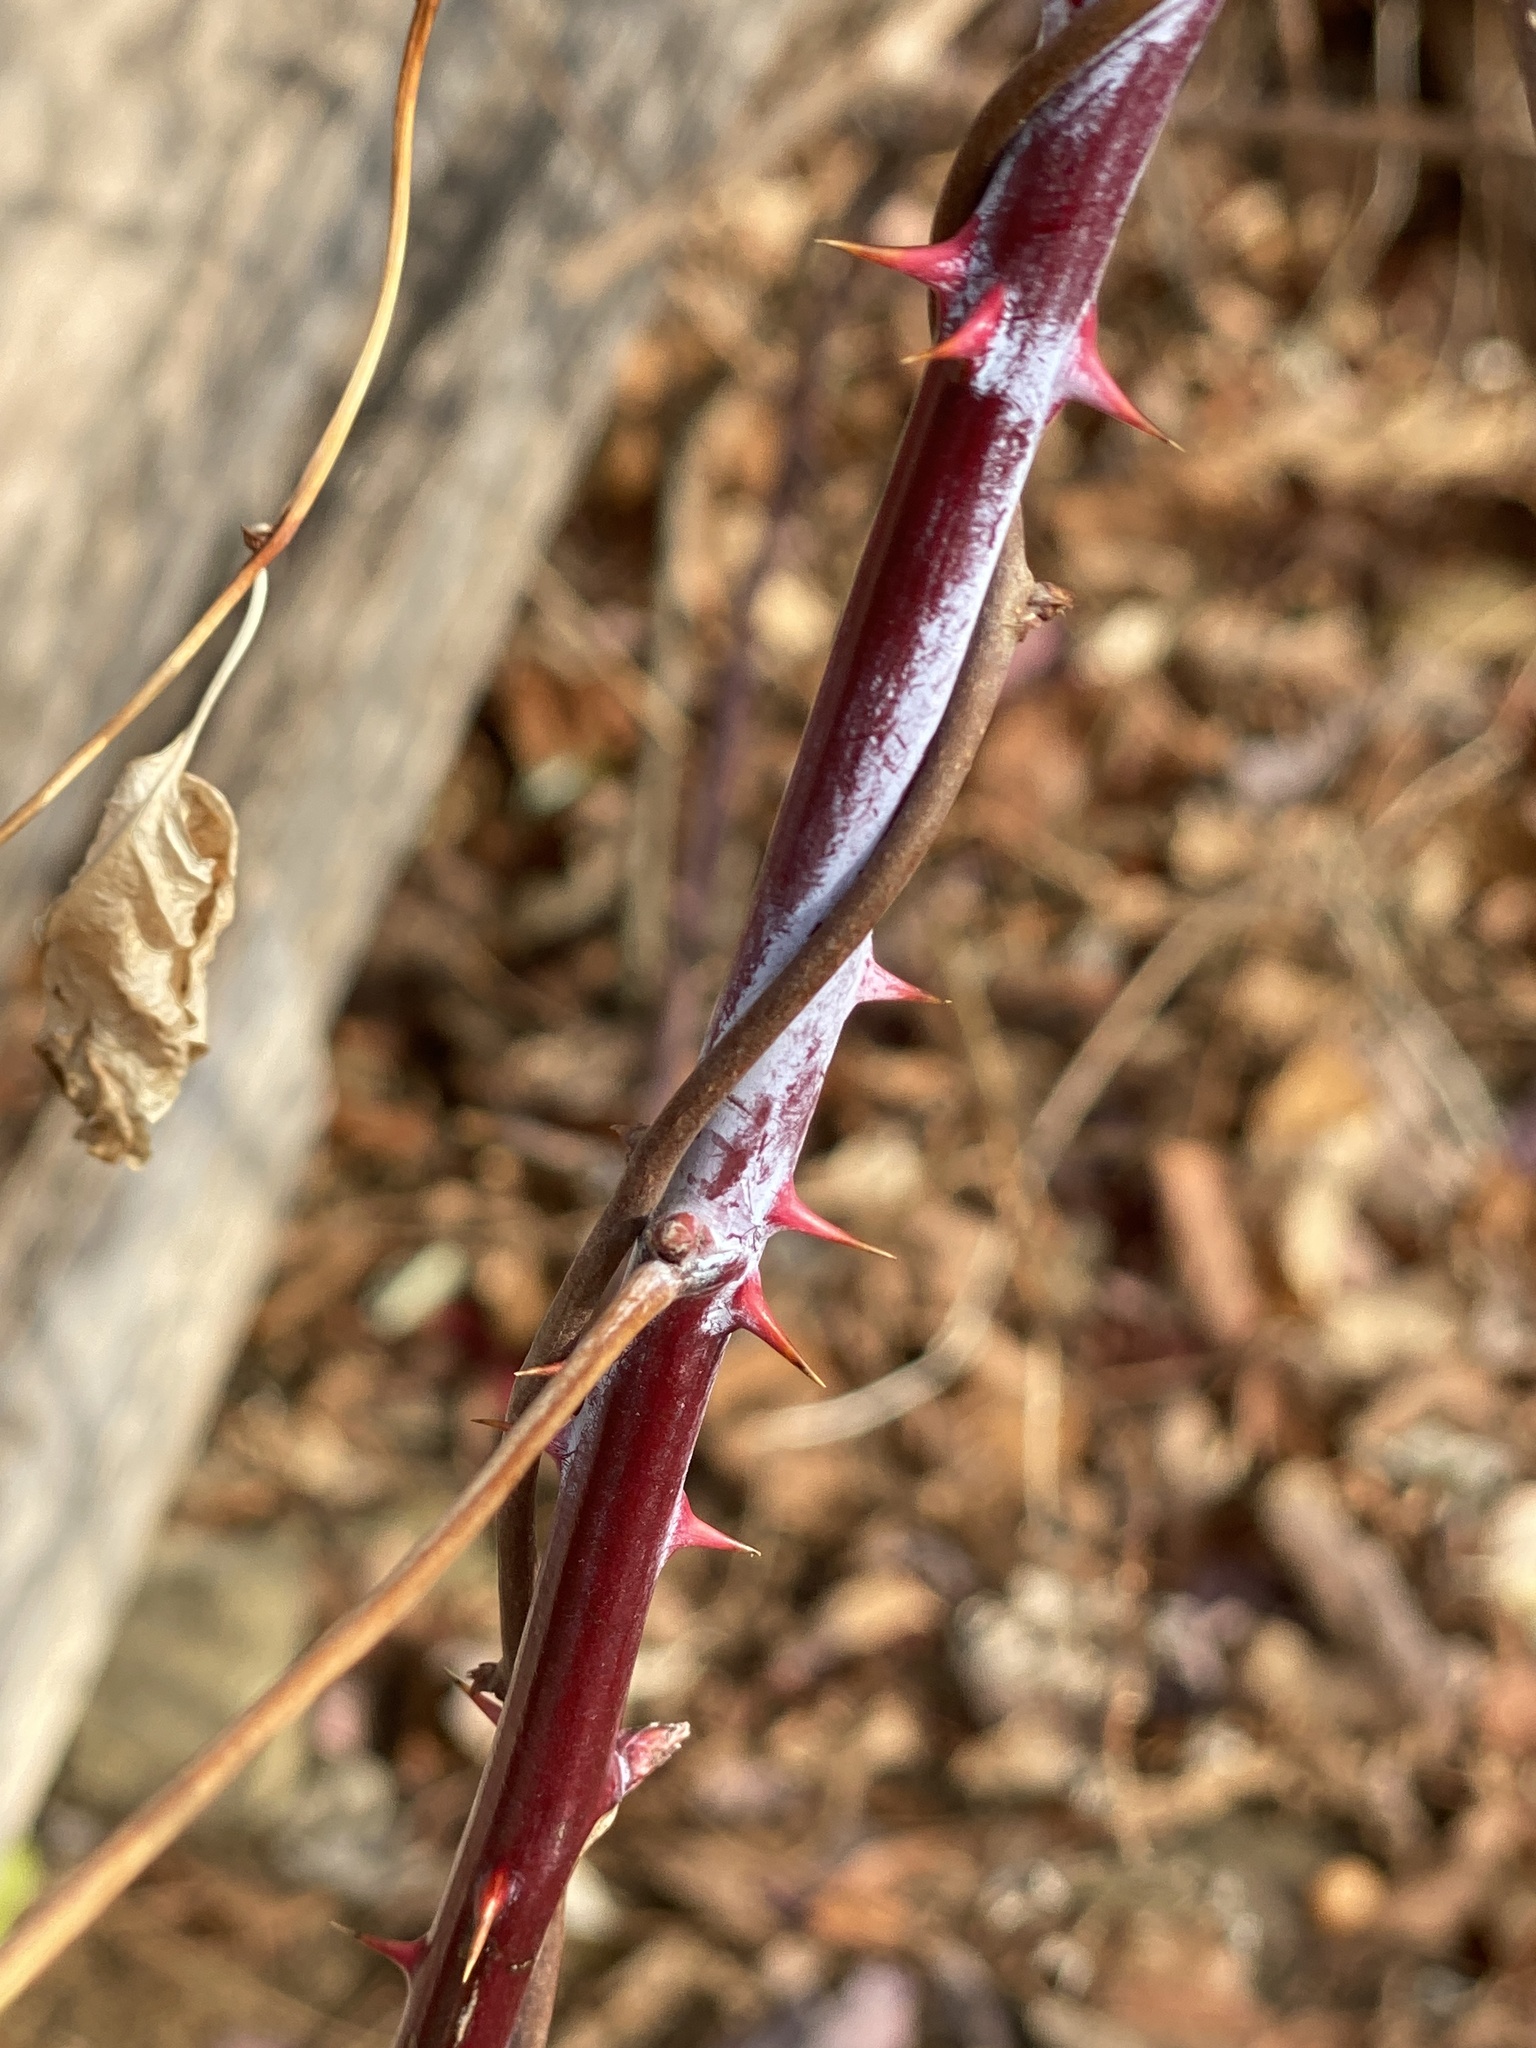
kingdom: Plantae
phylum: Tracheophyta
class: Magnoliopsida
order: Rosales
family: Rosaceae
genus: Rubus
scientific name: Rubus occidentalis
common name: Black raspberry
